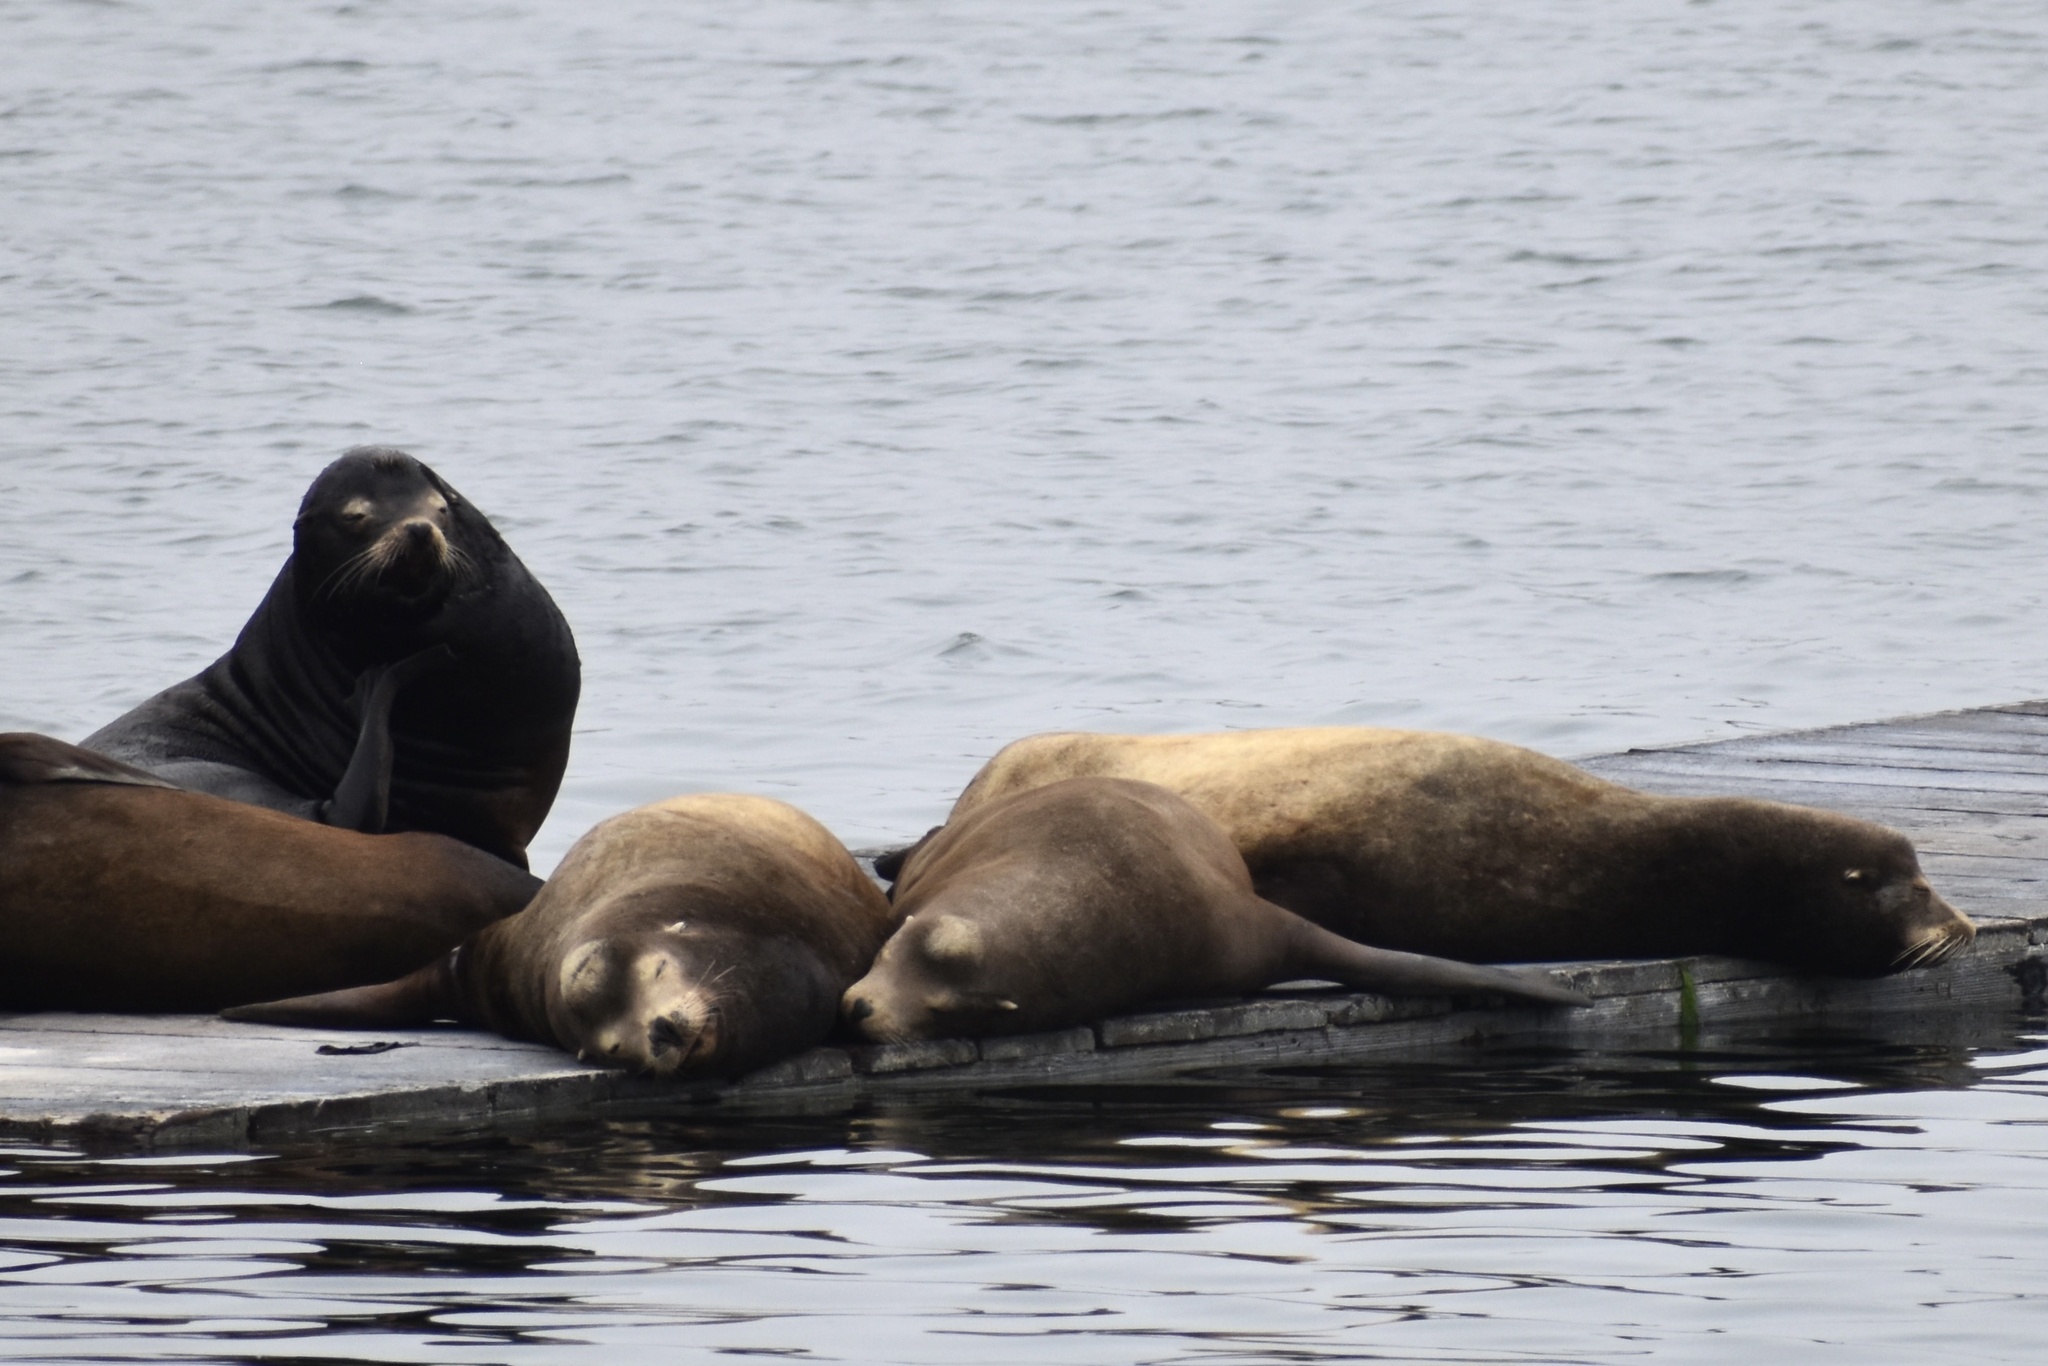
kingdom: Animalia
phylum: Chordata
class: Mammalia
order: Carnivora
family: Otariidae
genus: Zalophus
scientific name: Zalophus californianus
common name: California sea lion
